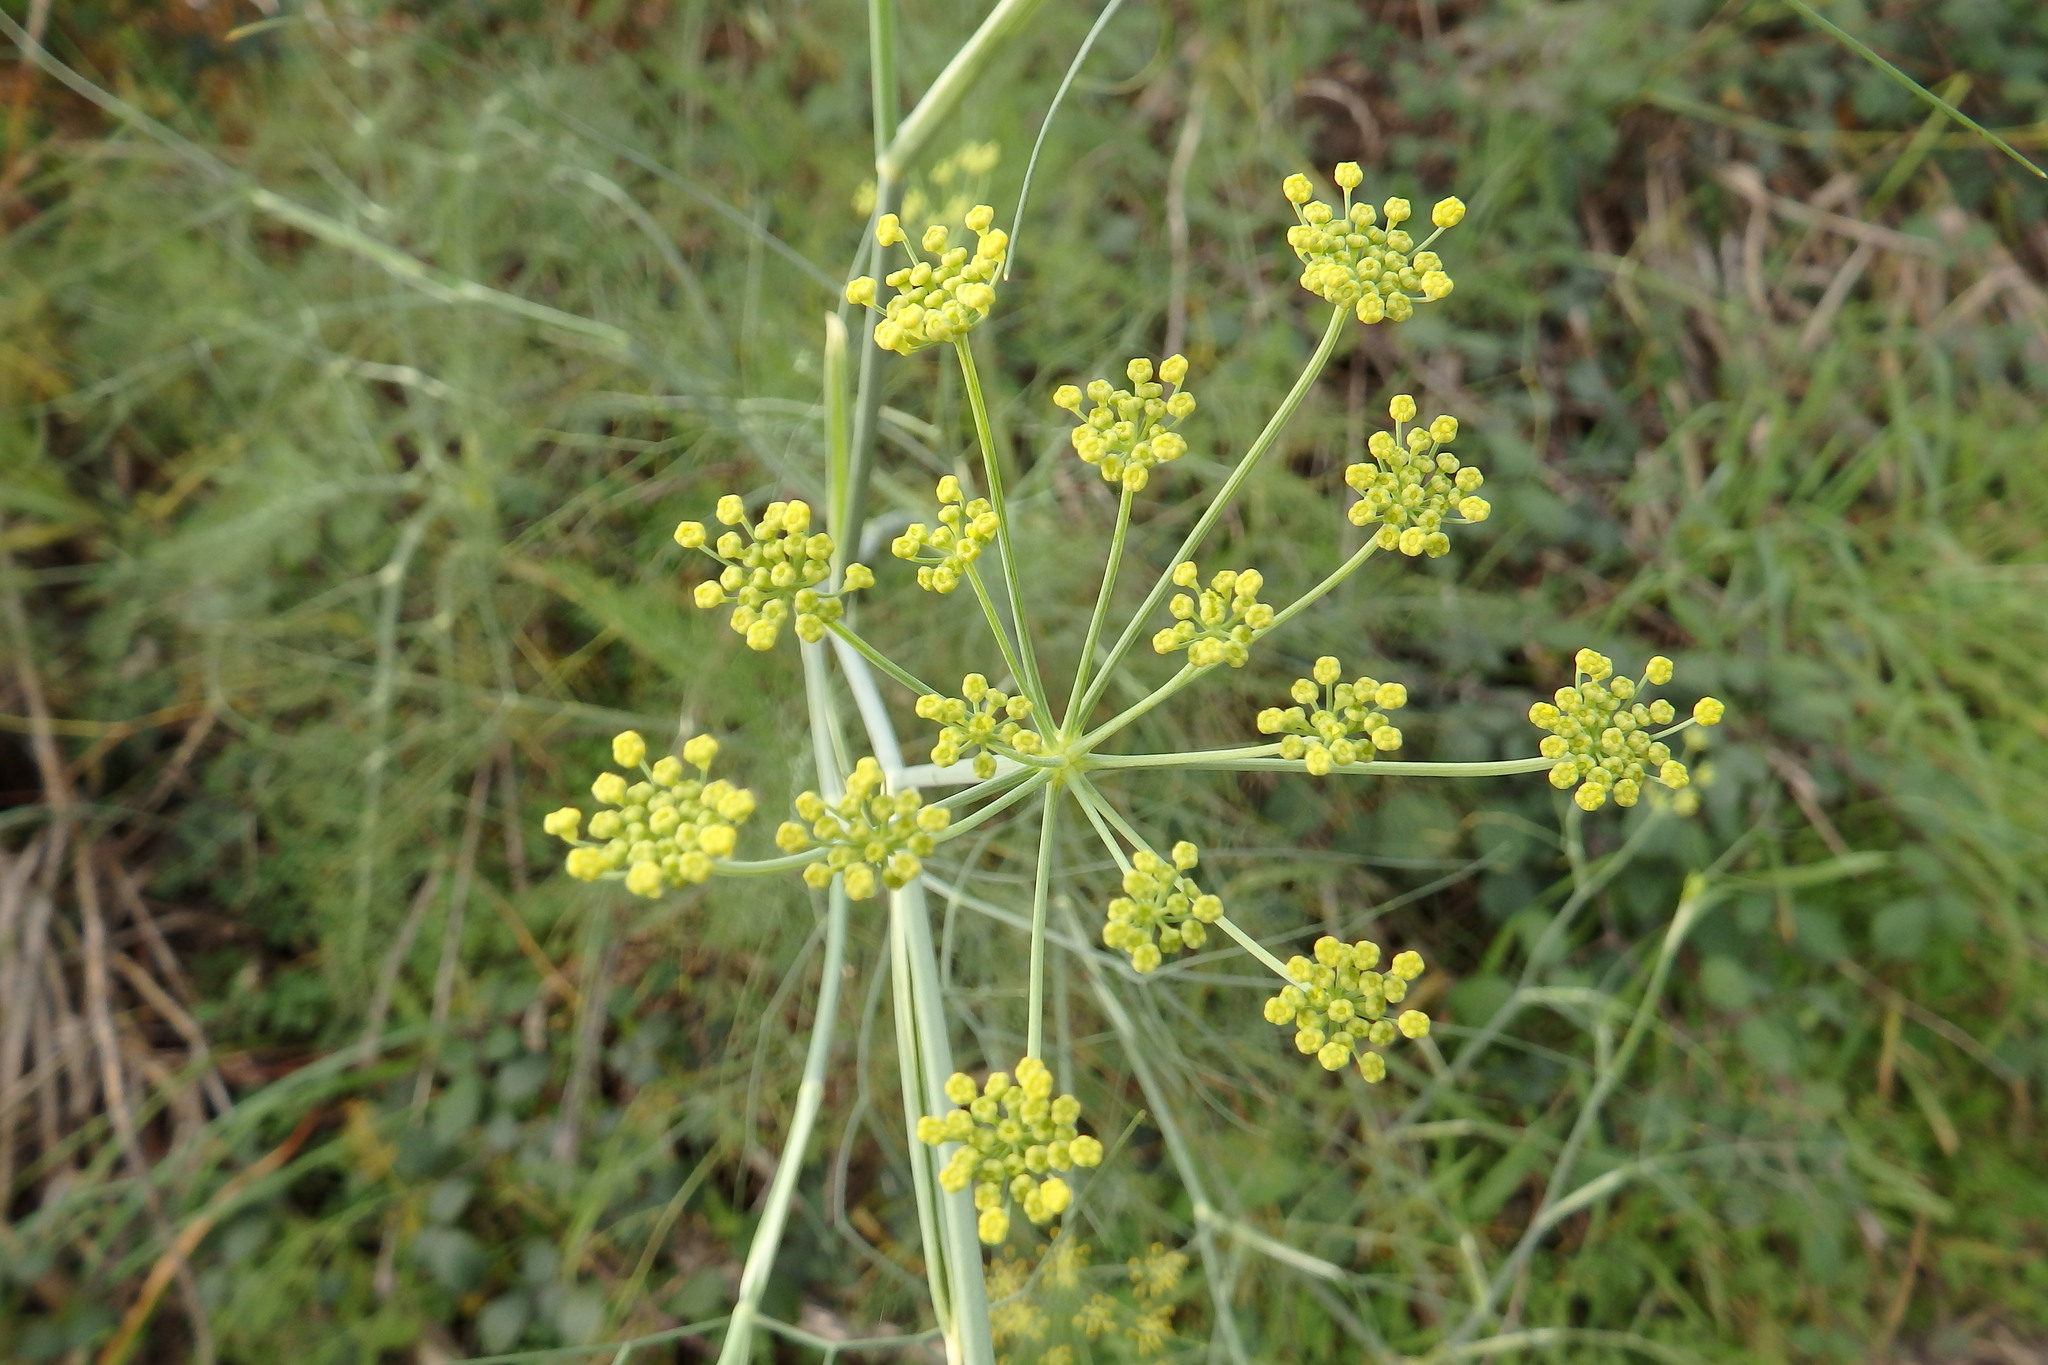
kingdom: Plantae
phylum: Tracheophyta
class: Magnoliopsida
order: Apiales
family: Apiaceae
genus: Foeniculum
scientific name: Foeniculum vulgare
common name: Fennel
